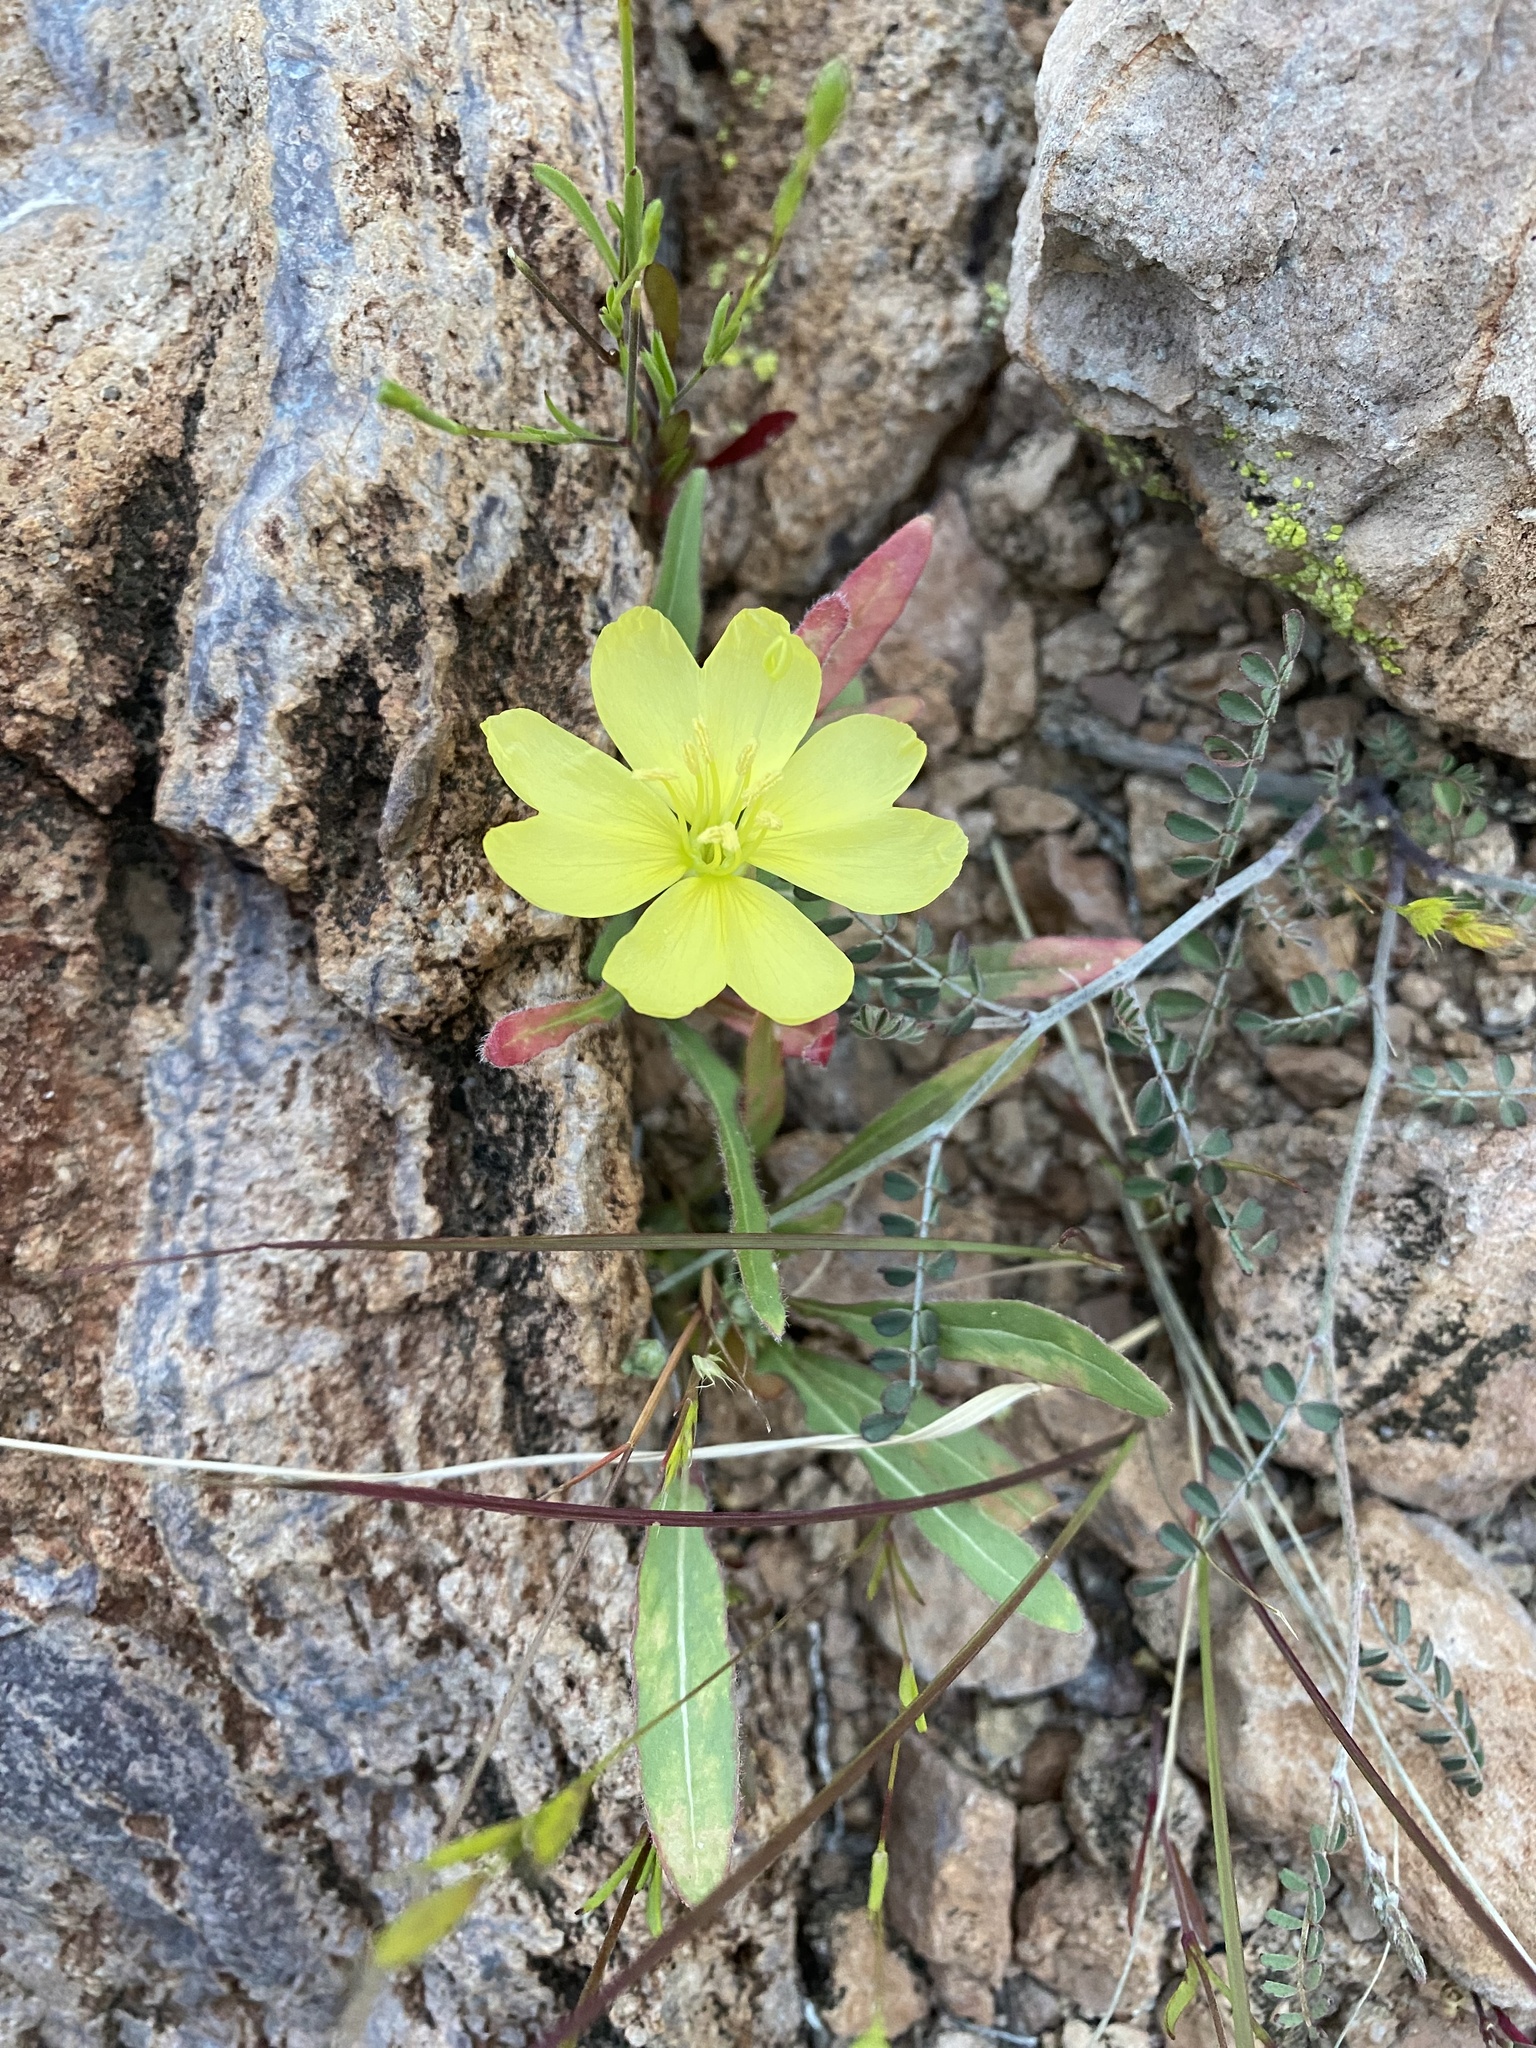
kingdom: Plantae
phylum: Tracheophyta
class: Magnoliopsida
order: Myrtales
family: Onagraceae
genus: Oenothera
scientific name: Oenothera primiveris
